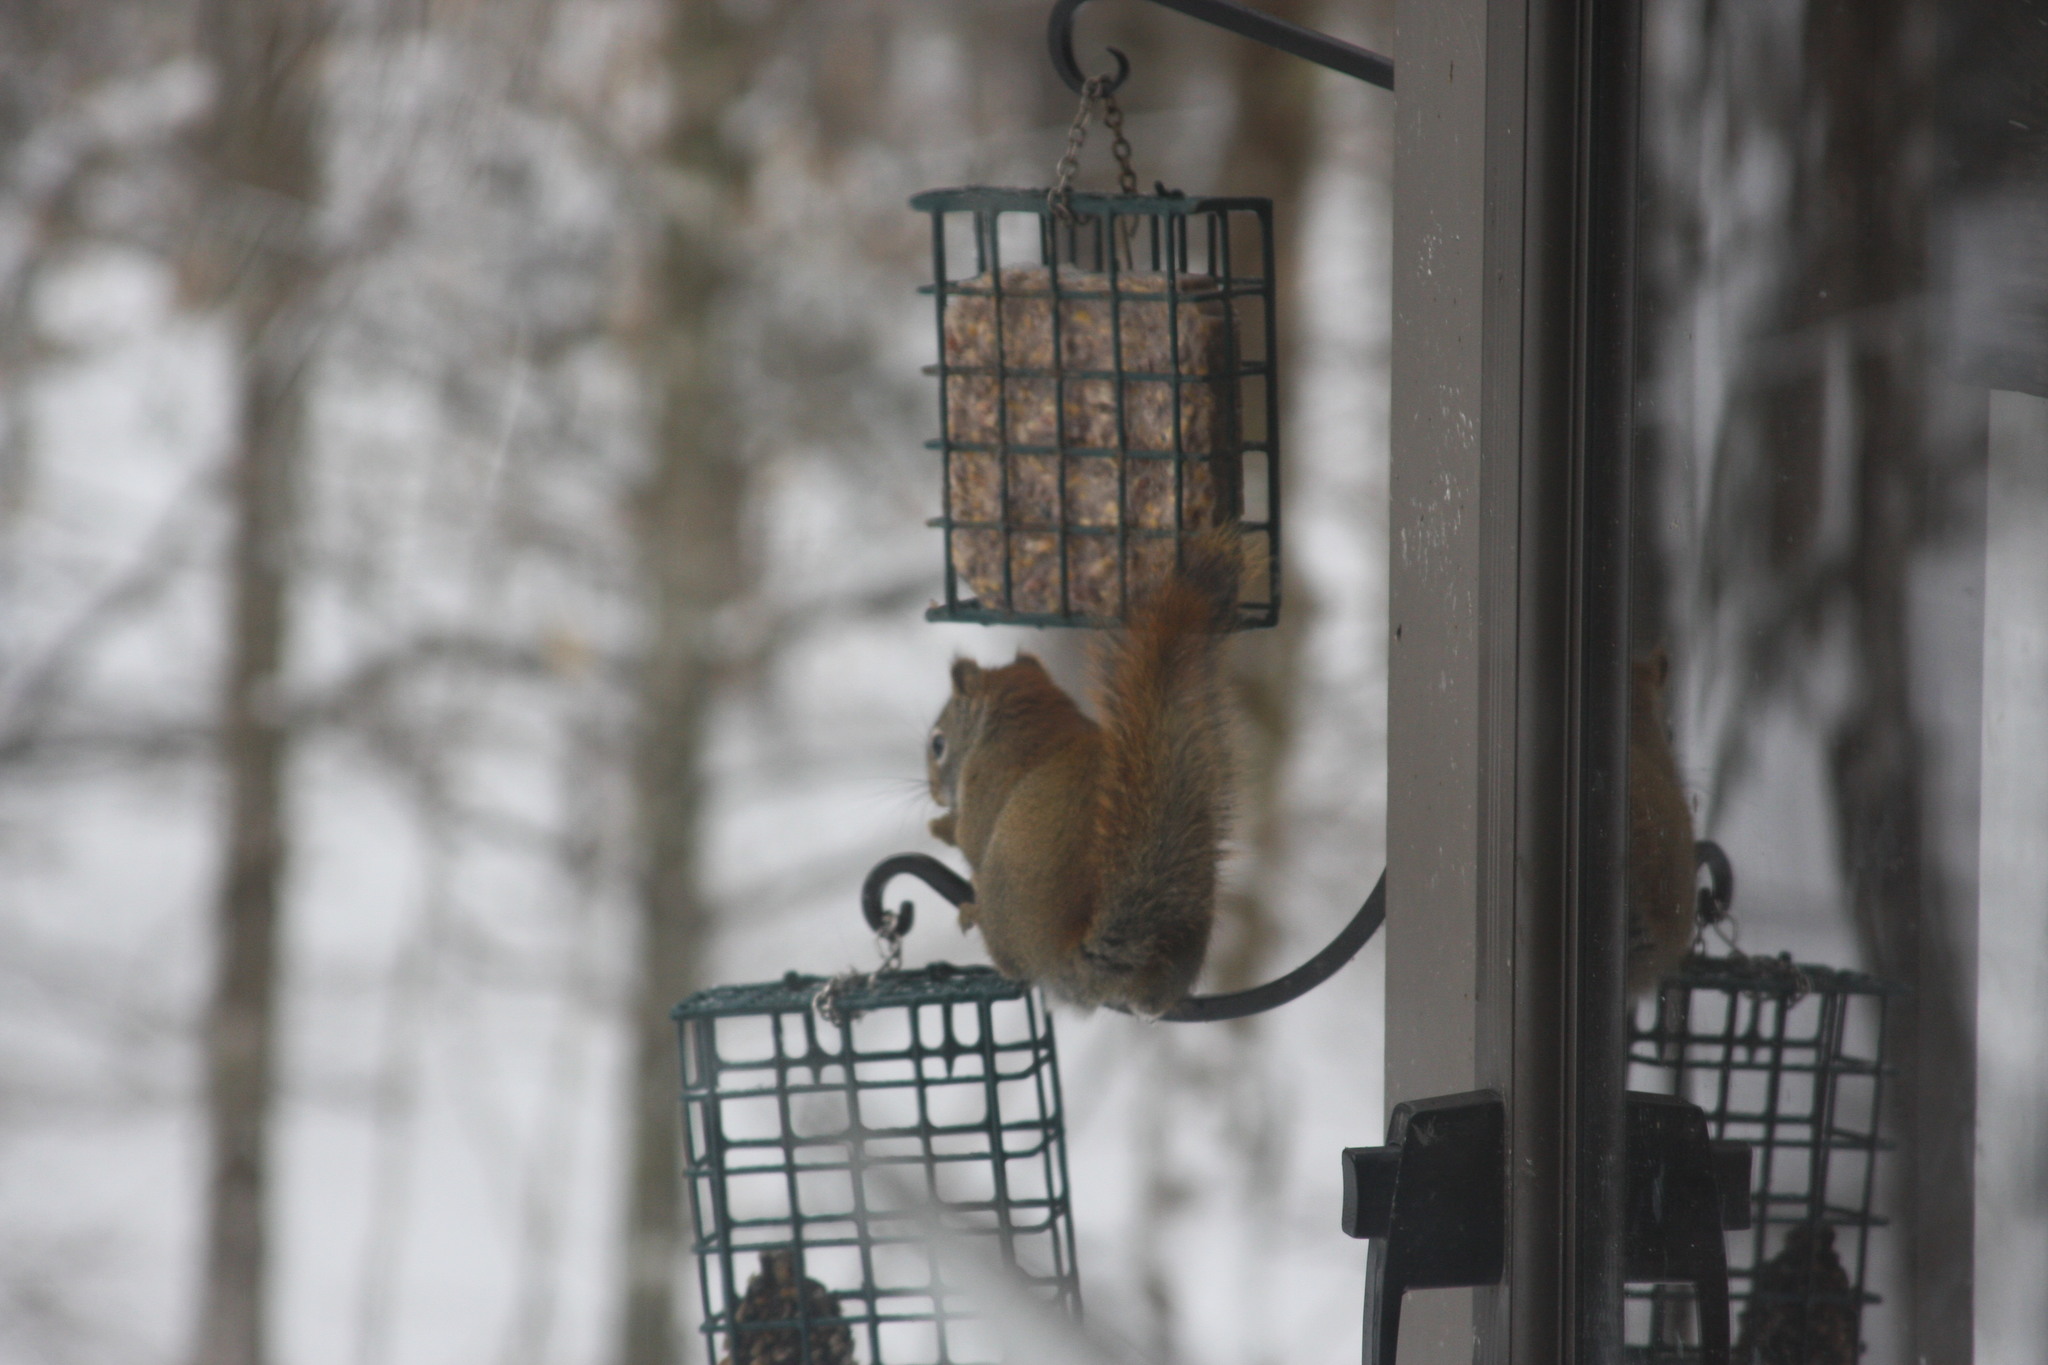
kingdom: Animalia
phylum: Chordata
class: Mammalia
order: Rodentia
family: Sciuridae
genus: Tamiasciurus
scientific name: Tamiasciurus hudsonicus
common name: Red squirrel
